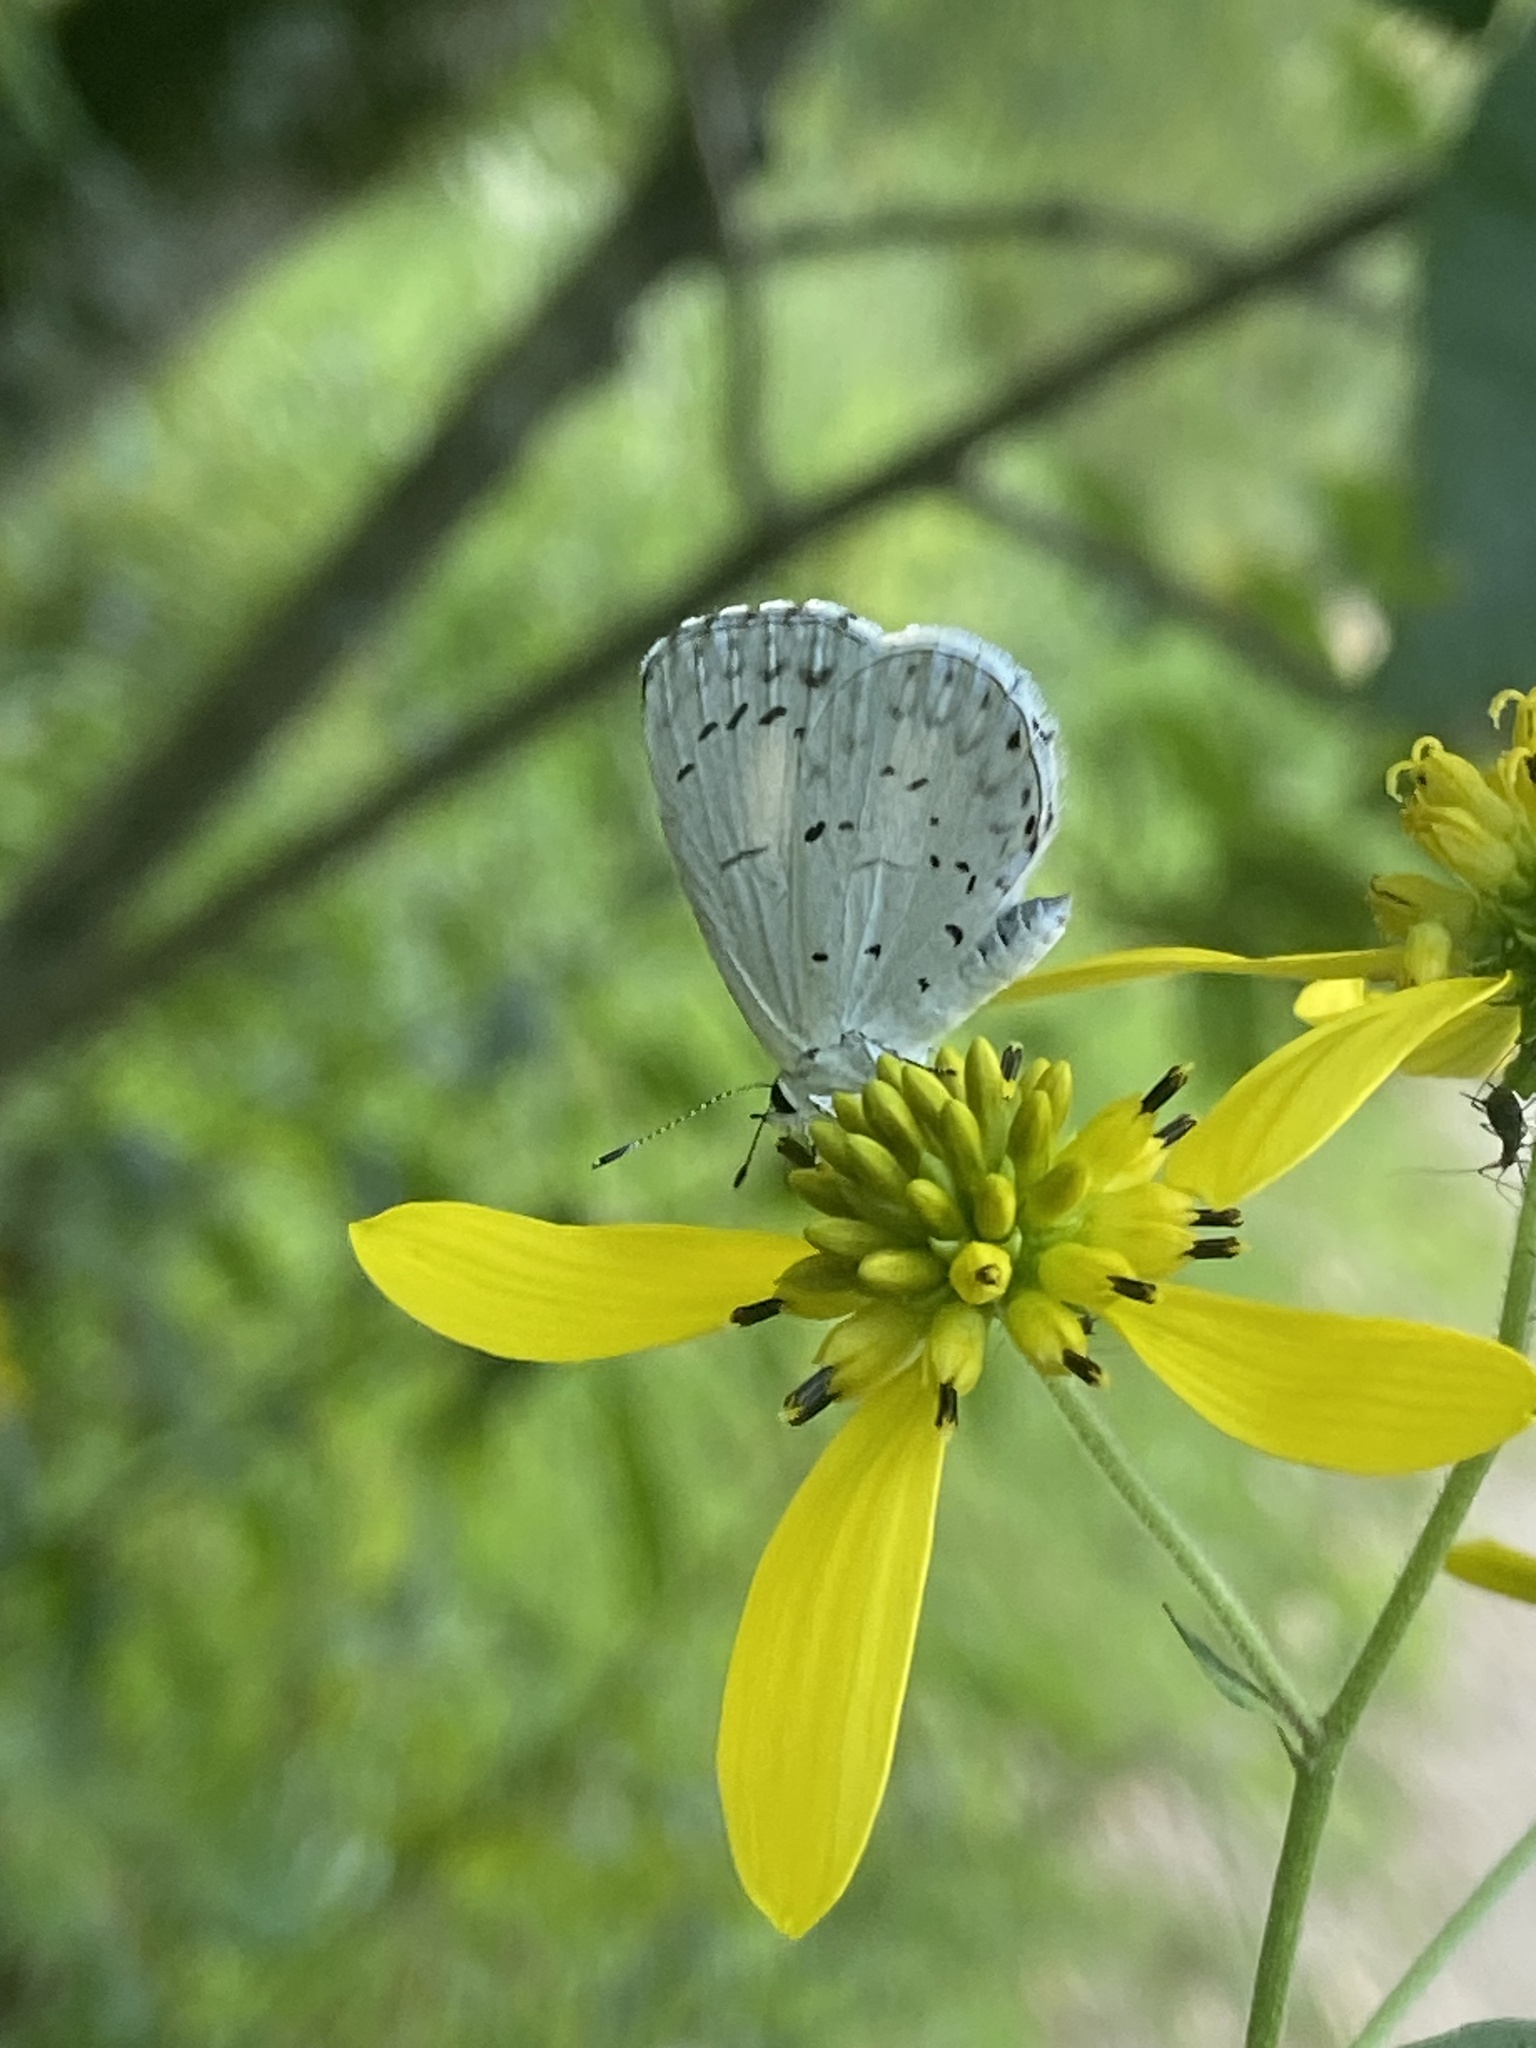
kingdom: Animalia
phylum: Arthropoda
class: Insecta
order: Lepidoptera
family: Lycaenidae
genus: Cyaniris
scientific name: Cyaniris neglecta
